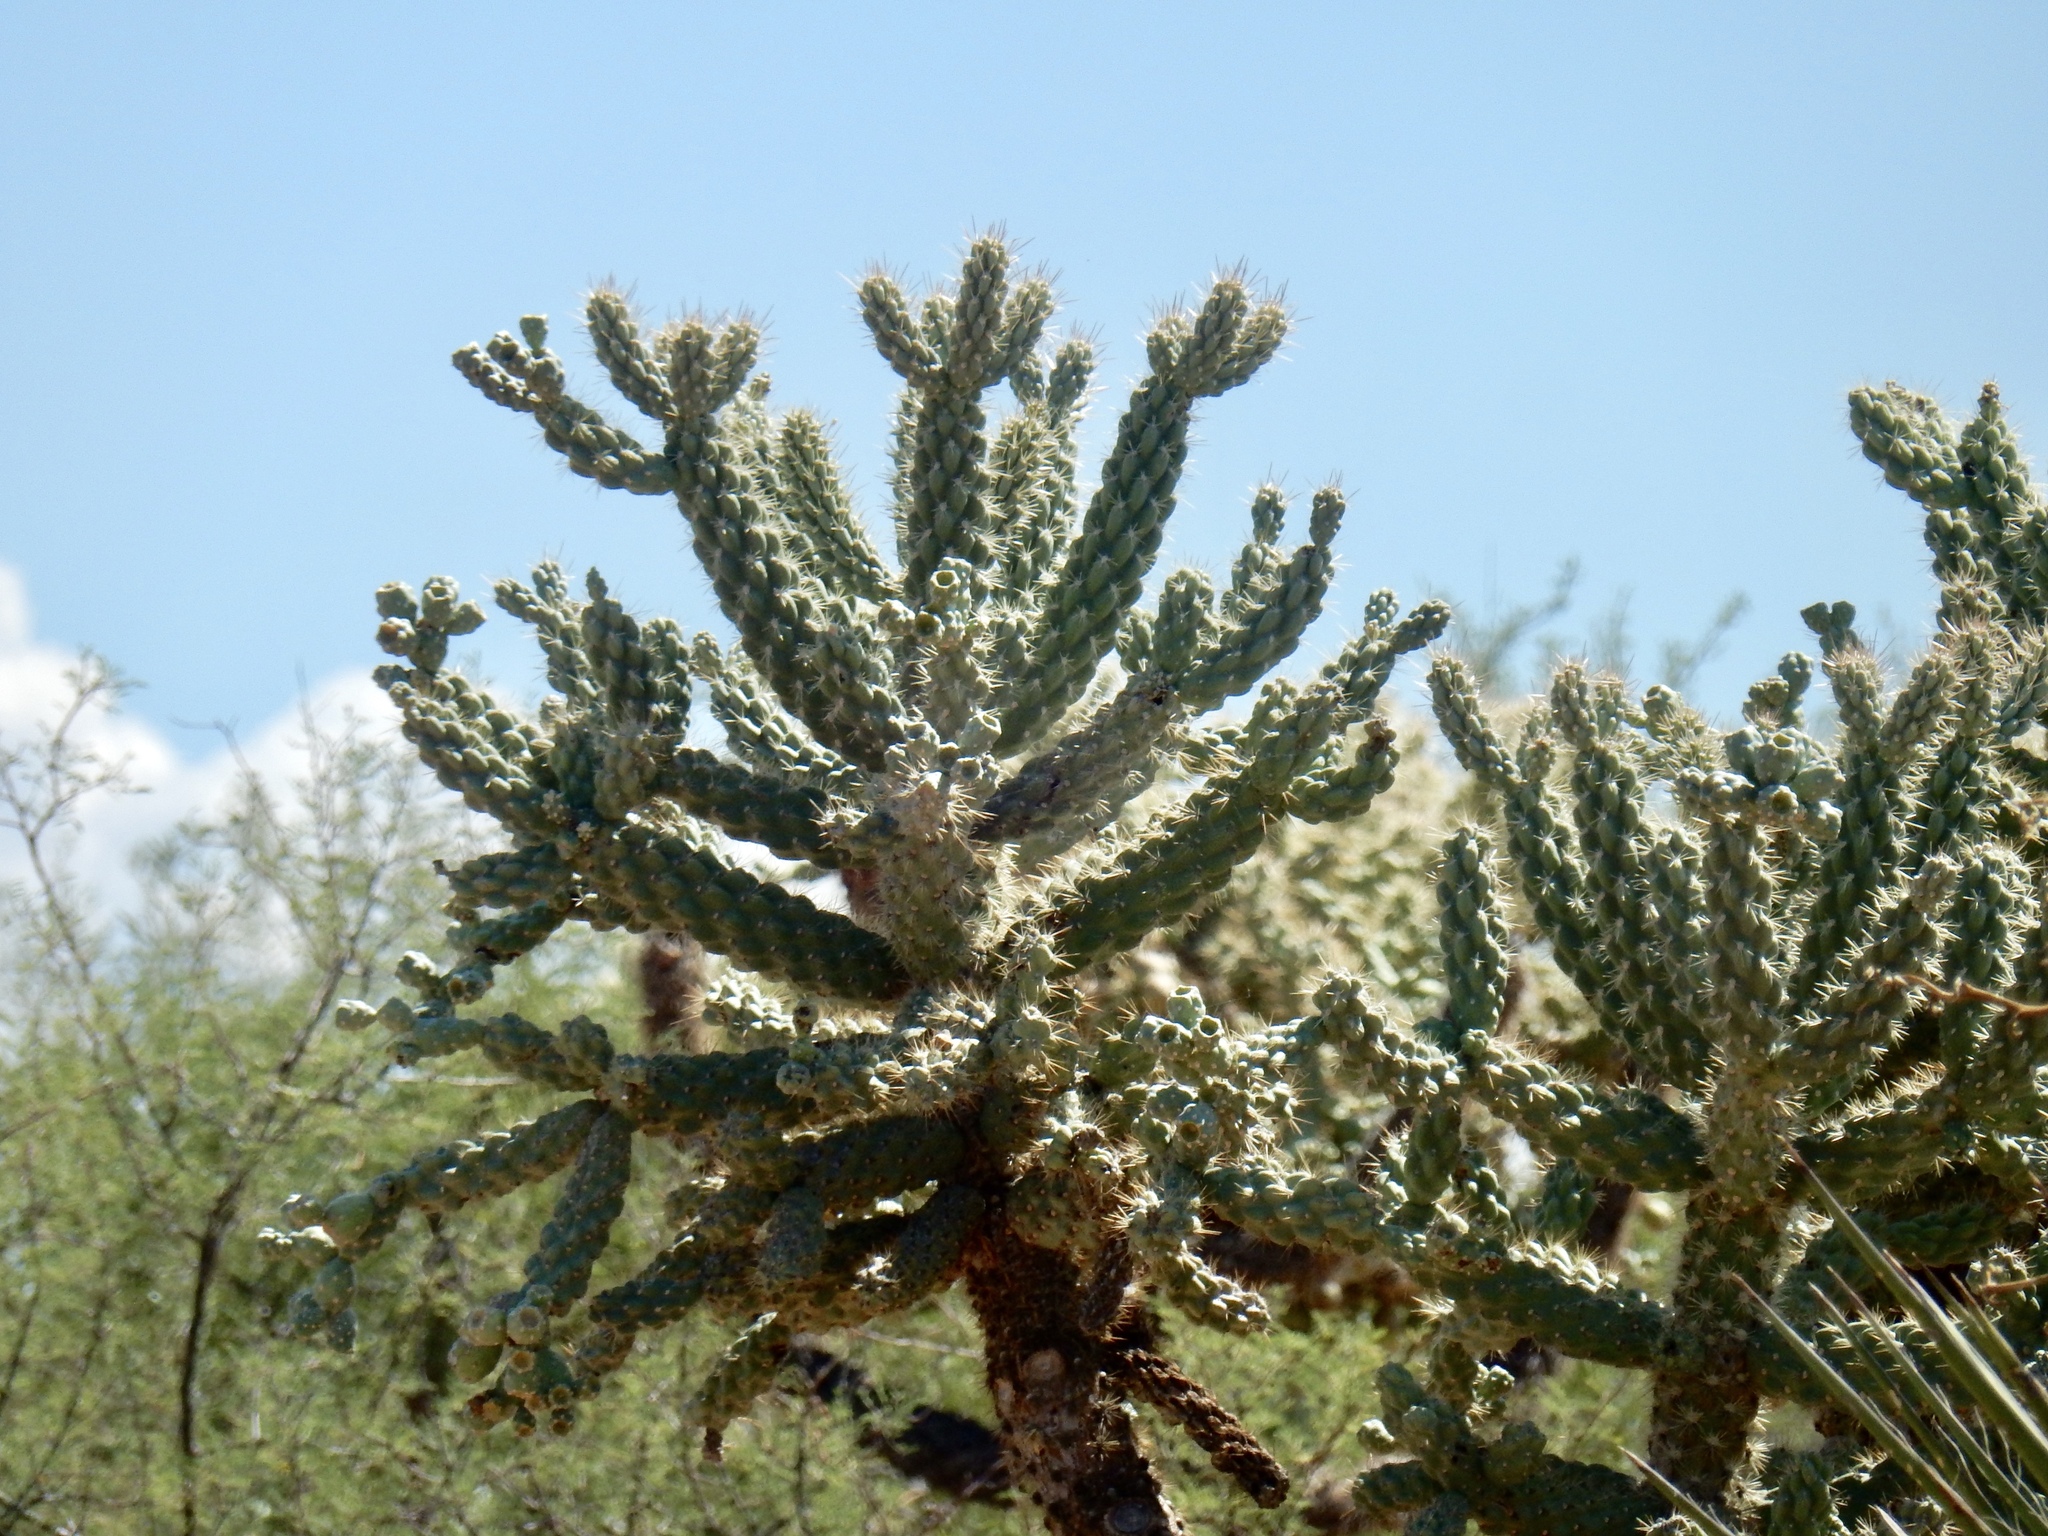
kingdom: Plantae
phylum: Tracheophyta
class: Magnoliopsida
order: Caryophyllales
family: Cactaceae
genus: Cylindropuntia
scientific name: Cylindropuntia fulgida
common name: Jumping cholla
